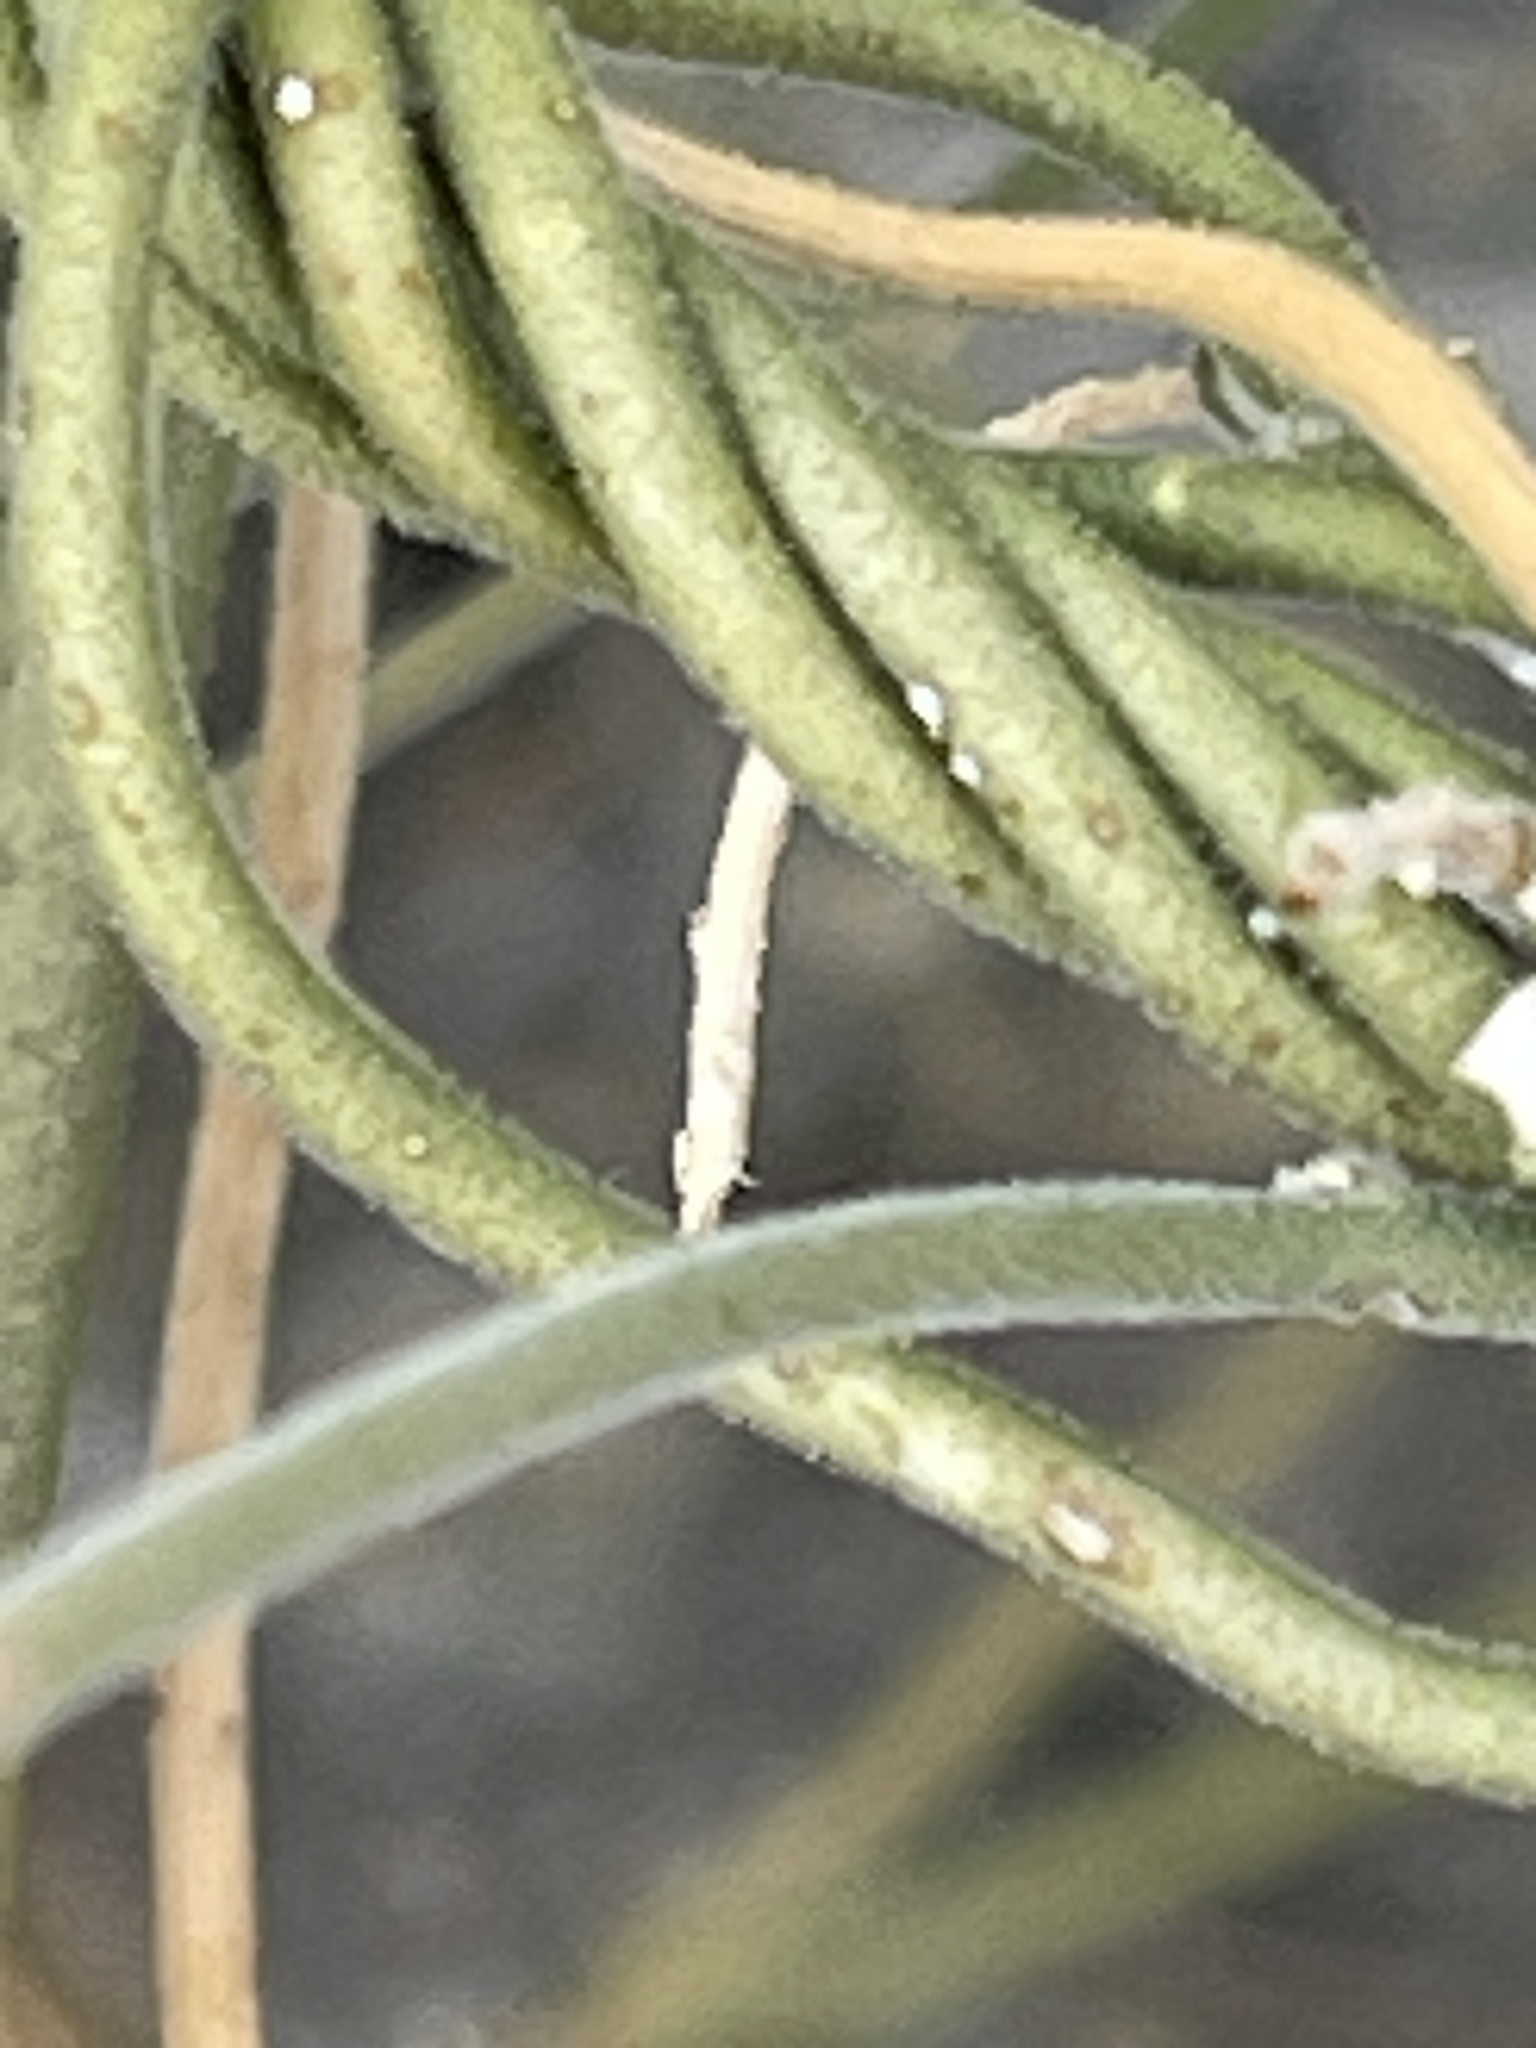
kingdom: Plantae
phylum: Tracheophyta
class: Magnoliopsida
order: Gentianales
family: Apocynaceae
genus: Funastrum
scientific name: Funastrum hirtellum
